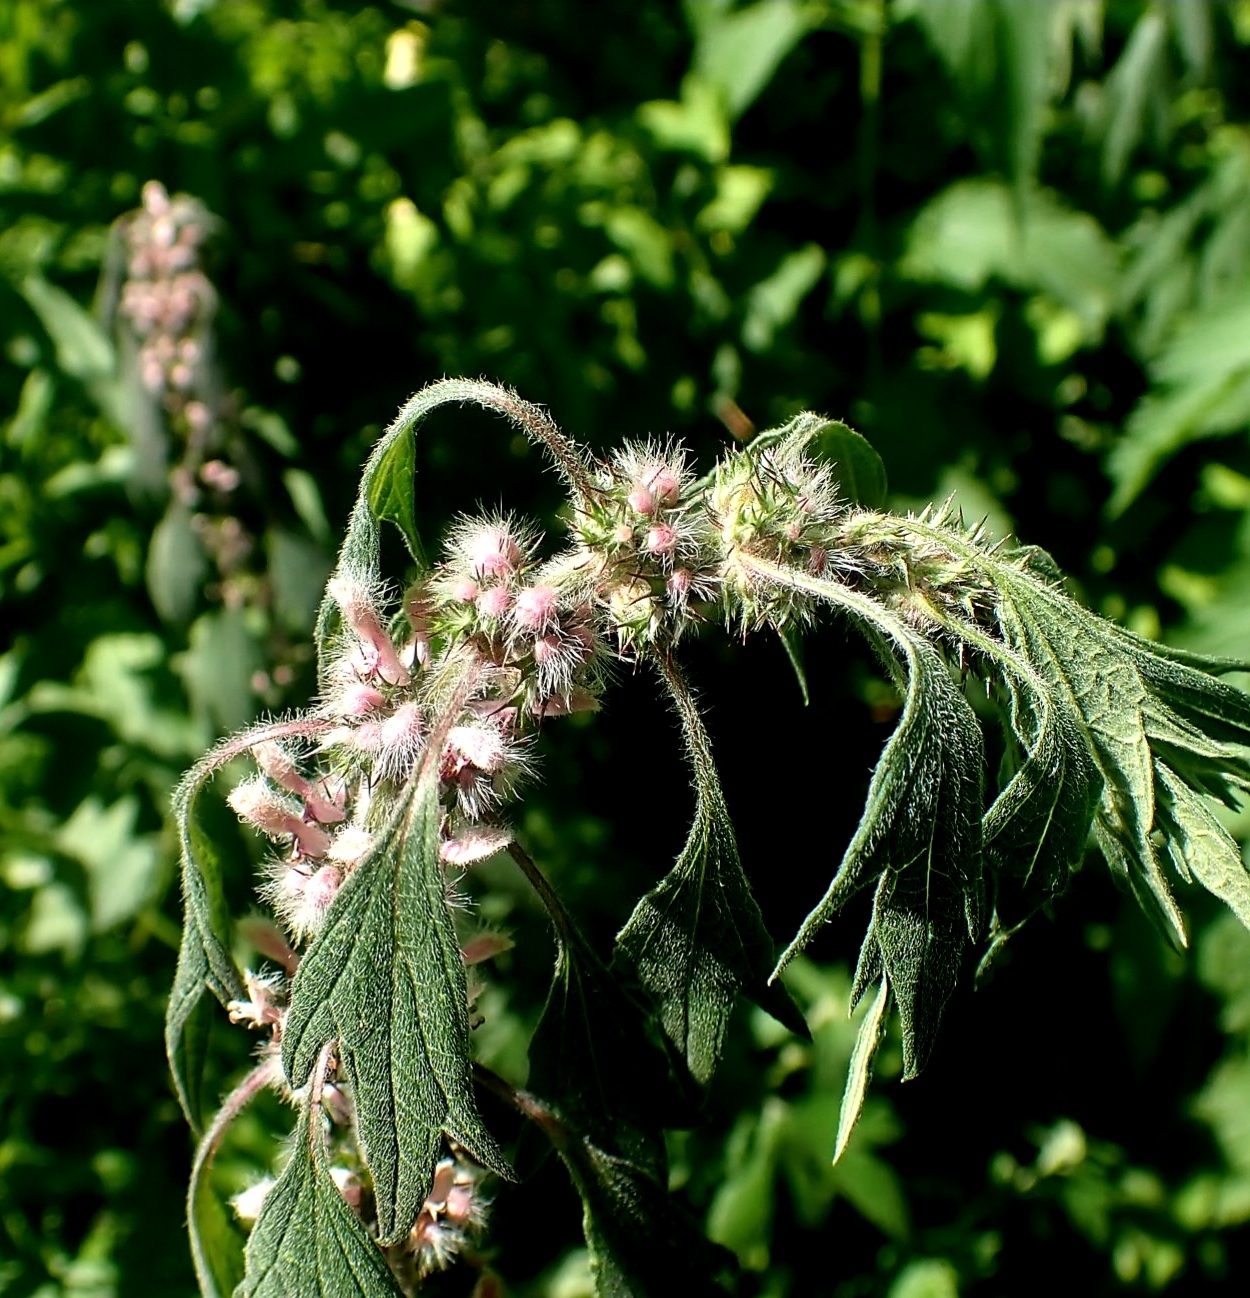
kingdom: Plantae
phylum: Tracheophyta
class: Magnoliopsida
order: Lamiales
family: Lamiaceae
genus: Leonurus
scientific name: Leonurus quinquelobatus
